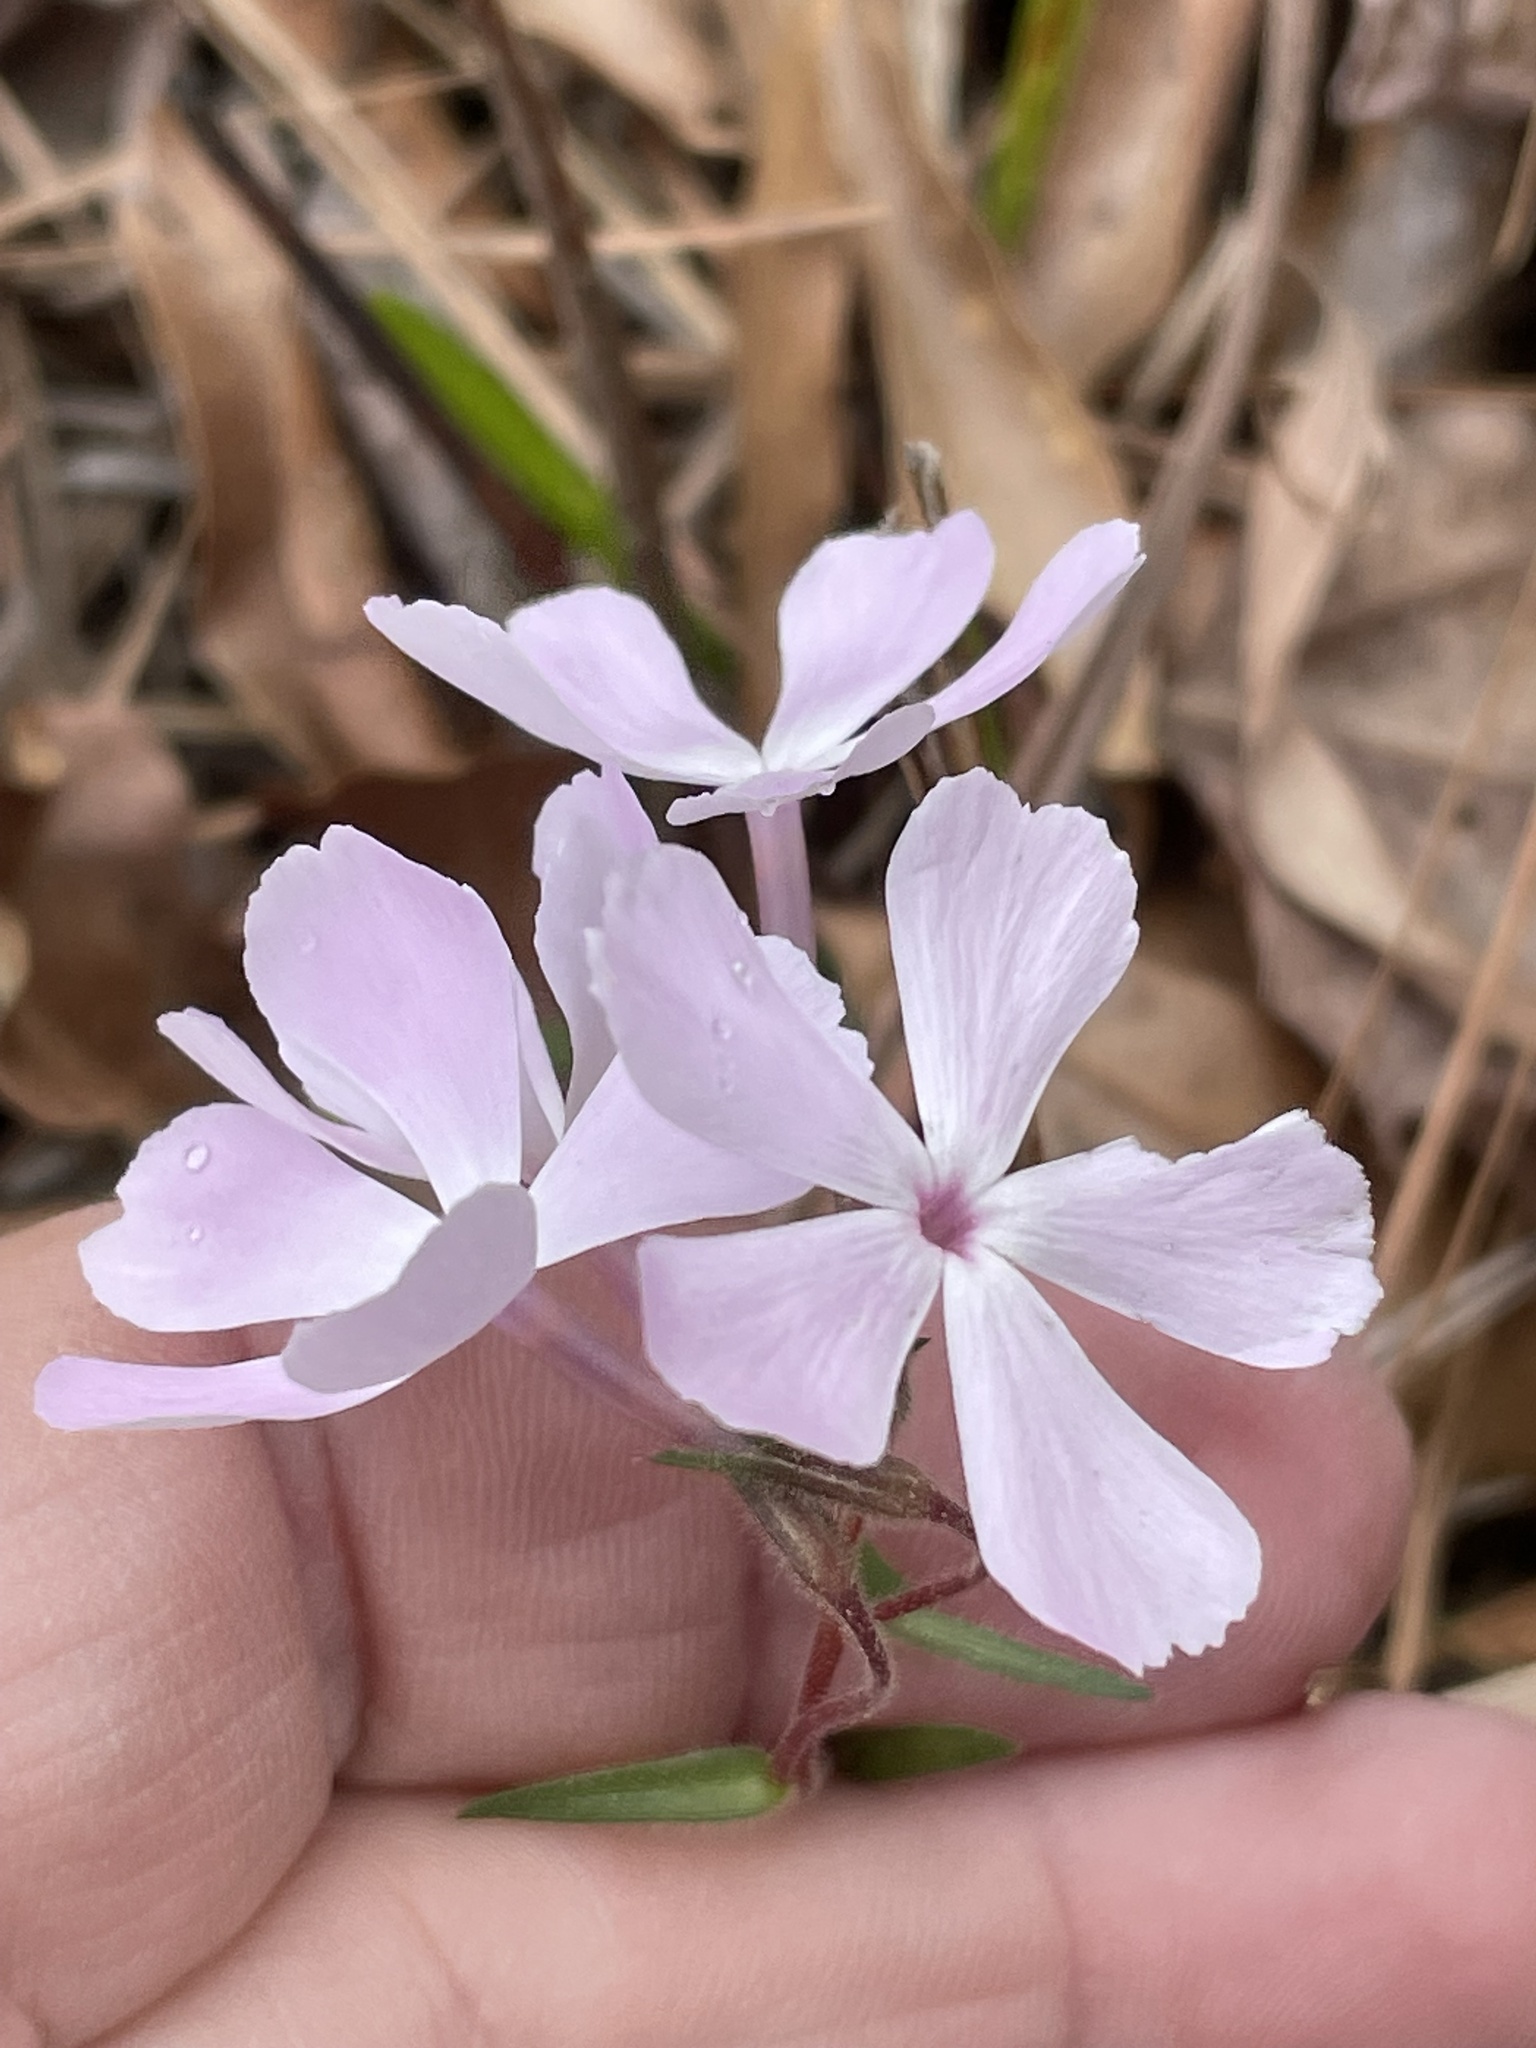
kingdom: Plantae
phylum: Tracheophyta
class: Magnoliopsida
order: Ericales
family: Polemoniaceae
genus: Phlox
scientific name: Phlox nivalis
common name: Trailing phlox
